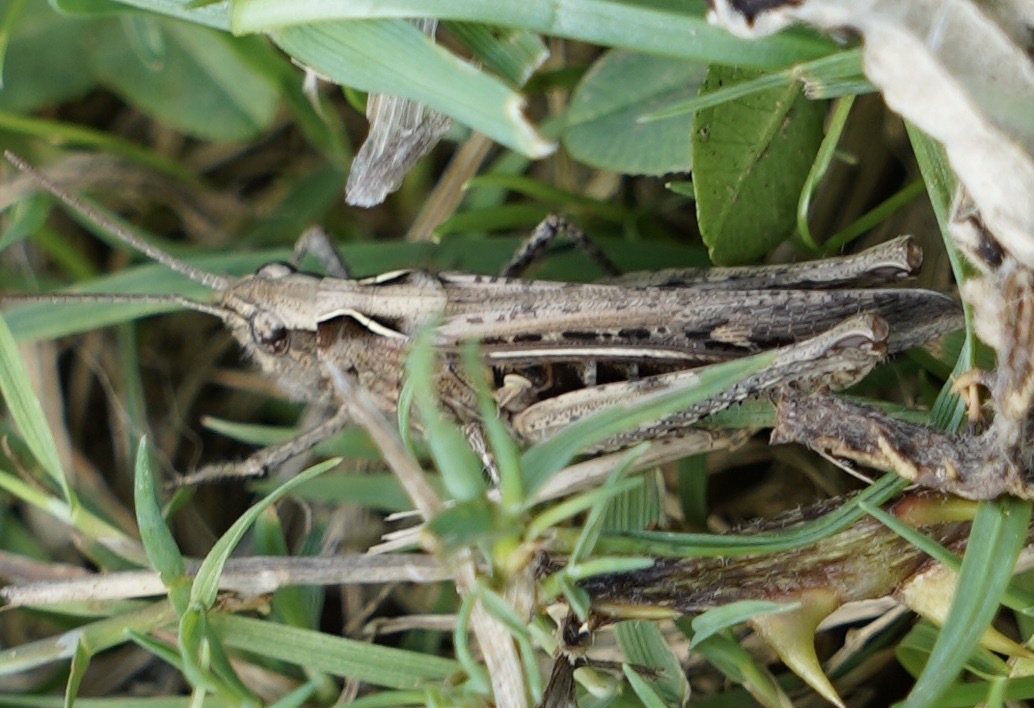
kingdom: Animalia
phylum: Arthropoda
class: Insecta
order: Orthoptera
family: Acrididae
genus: Chorthippus
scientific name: Chorthippus brunneus
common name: Field grasshopper
